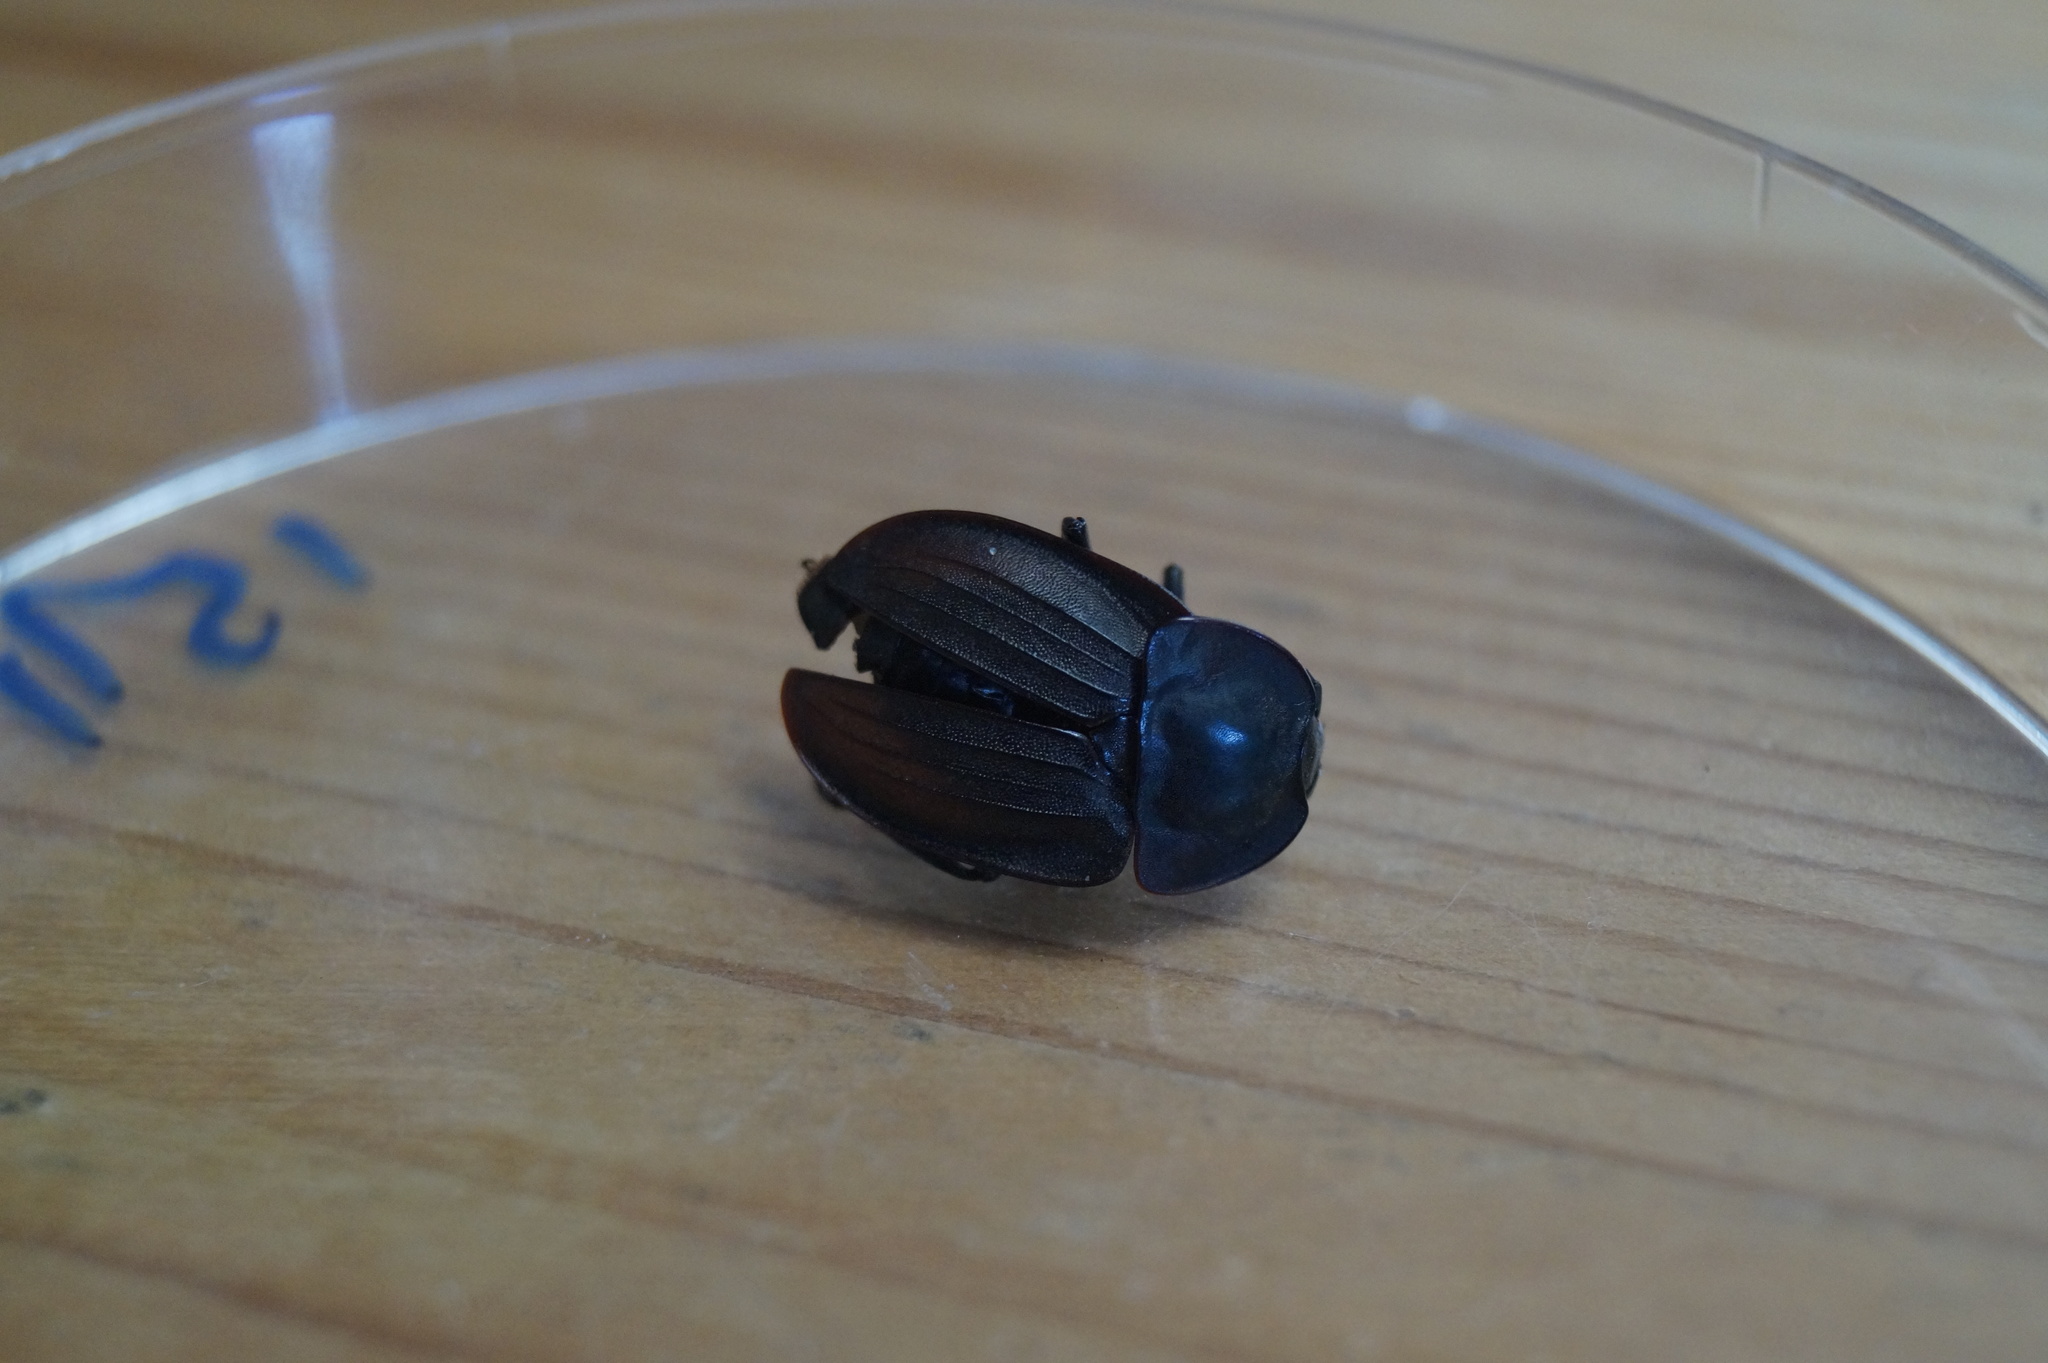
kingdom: Animalia
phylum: Arthropoda
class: Insecta
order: Coleoptera
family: Staphylinidae
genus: Silpha
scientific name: Silpha carinata
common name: Silphid beetle
